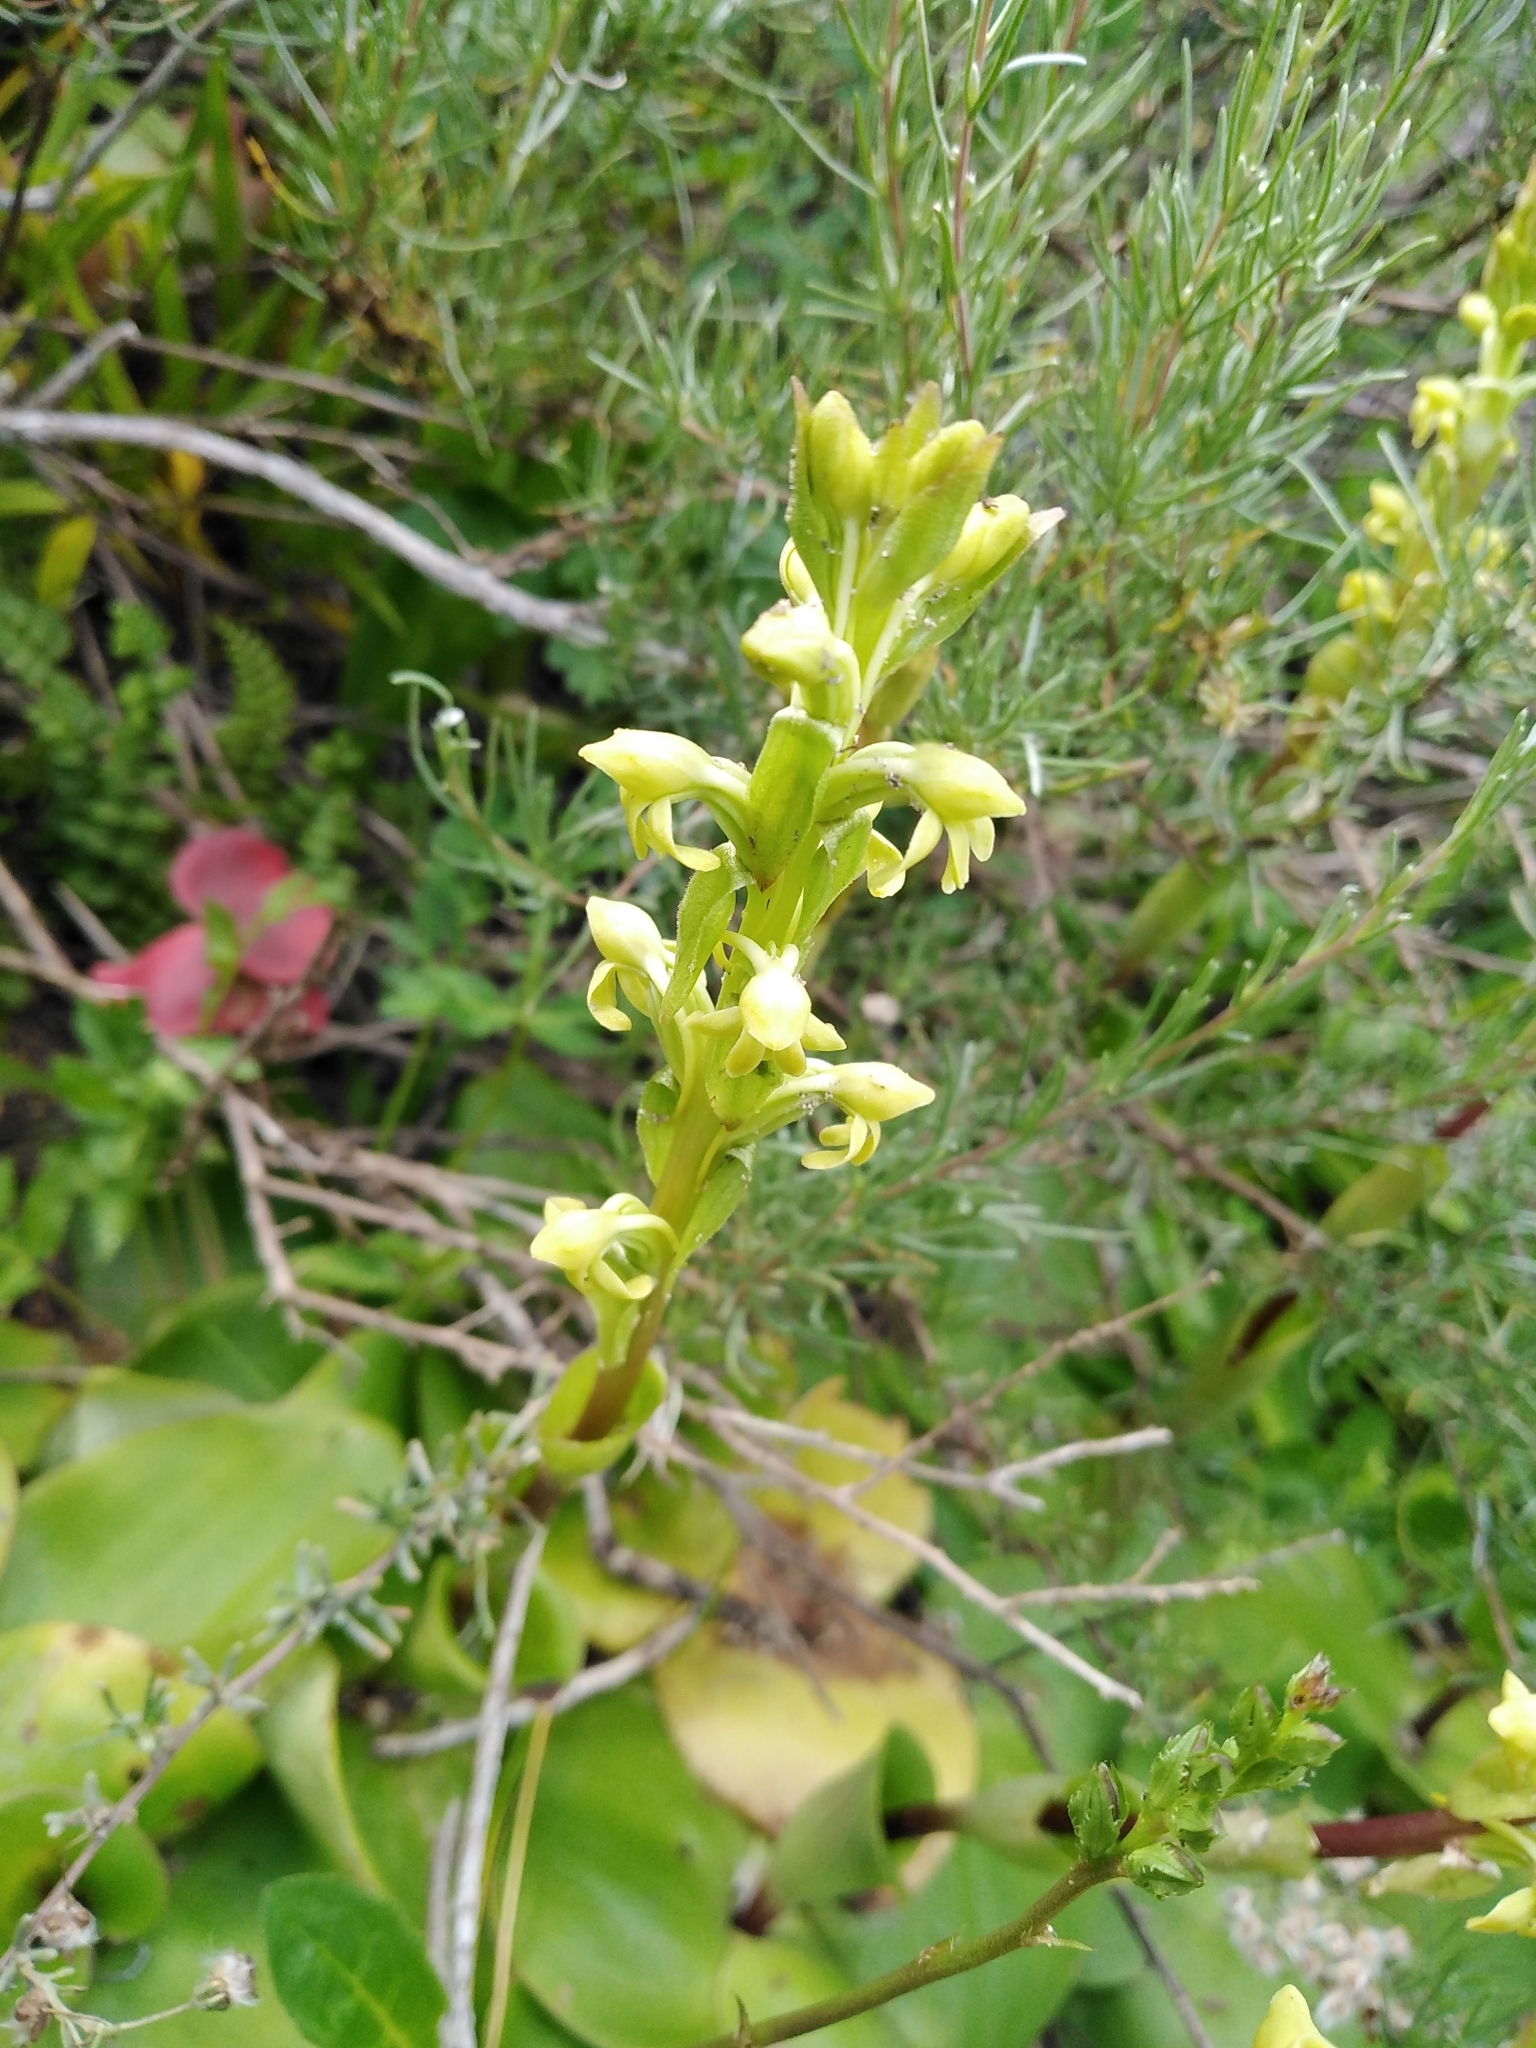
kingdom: Plantae
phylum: Tracheophyta
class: Liliopsida
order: Asparagales
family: Orchidaceae
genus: Satyrium
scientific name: Satyrium bicorne
